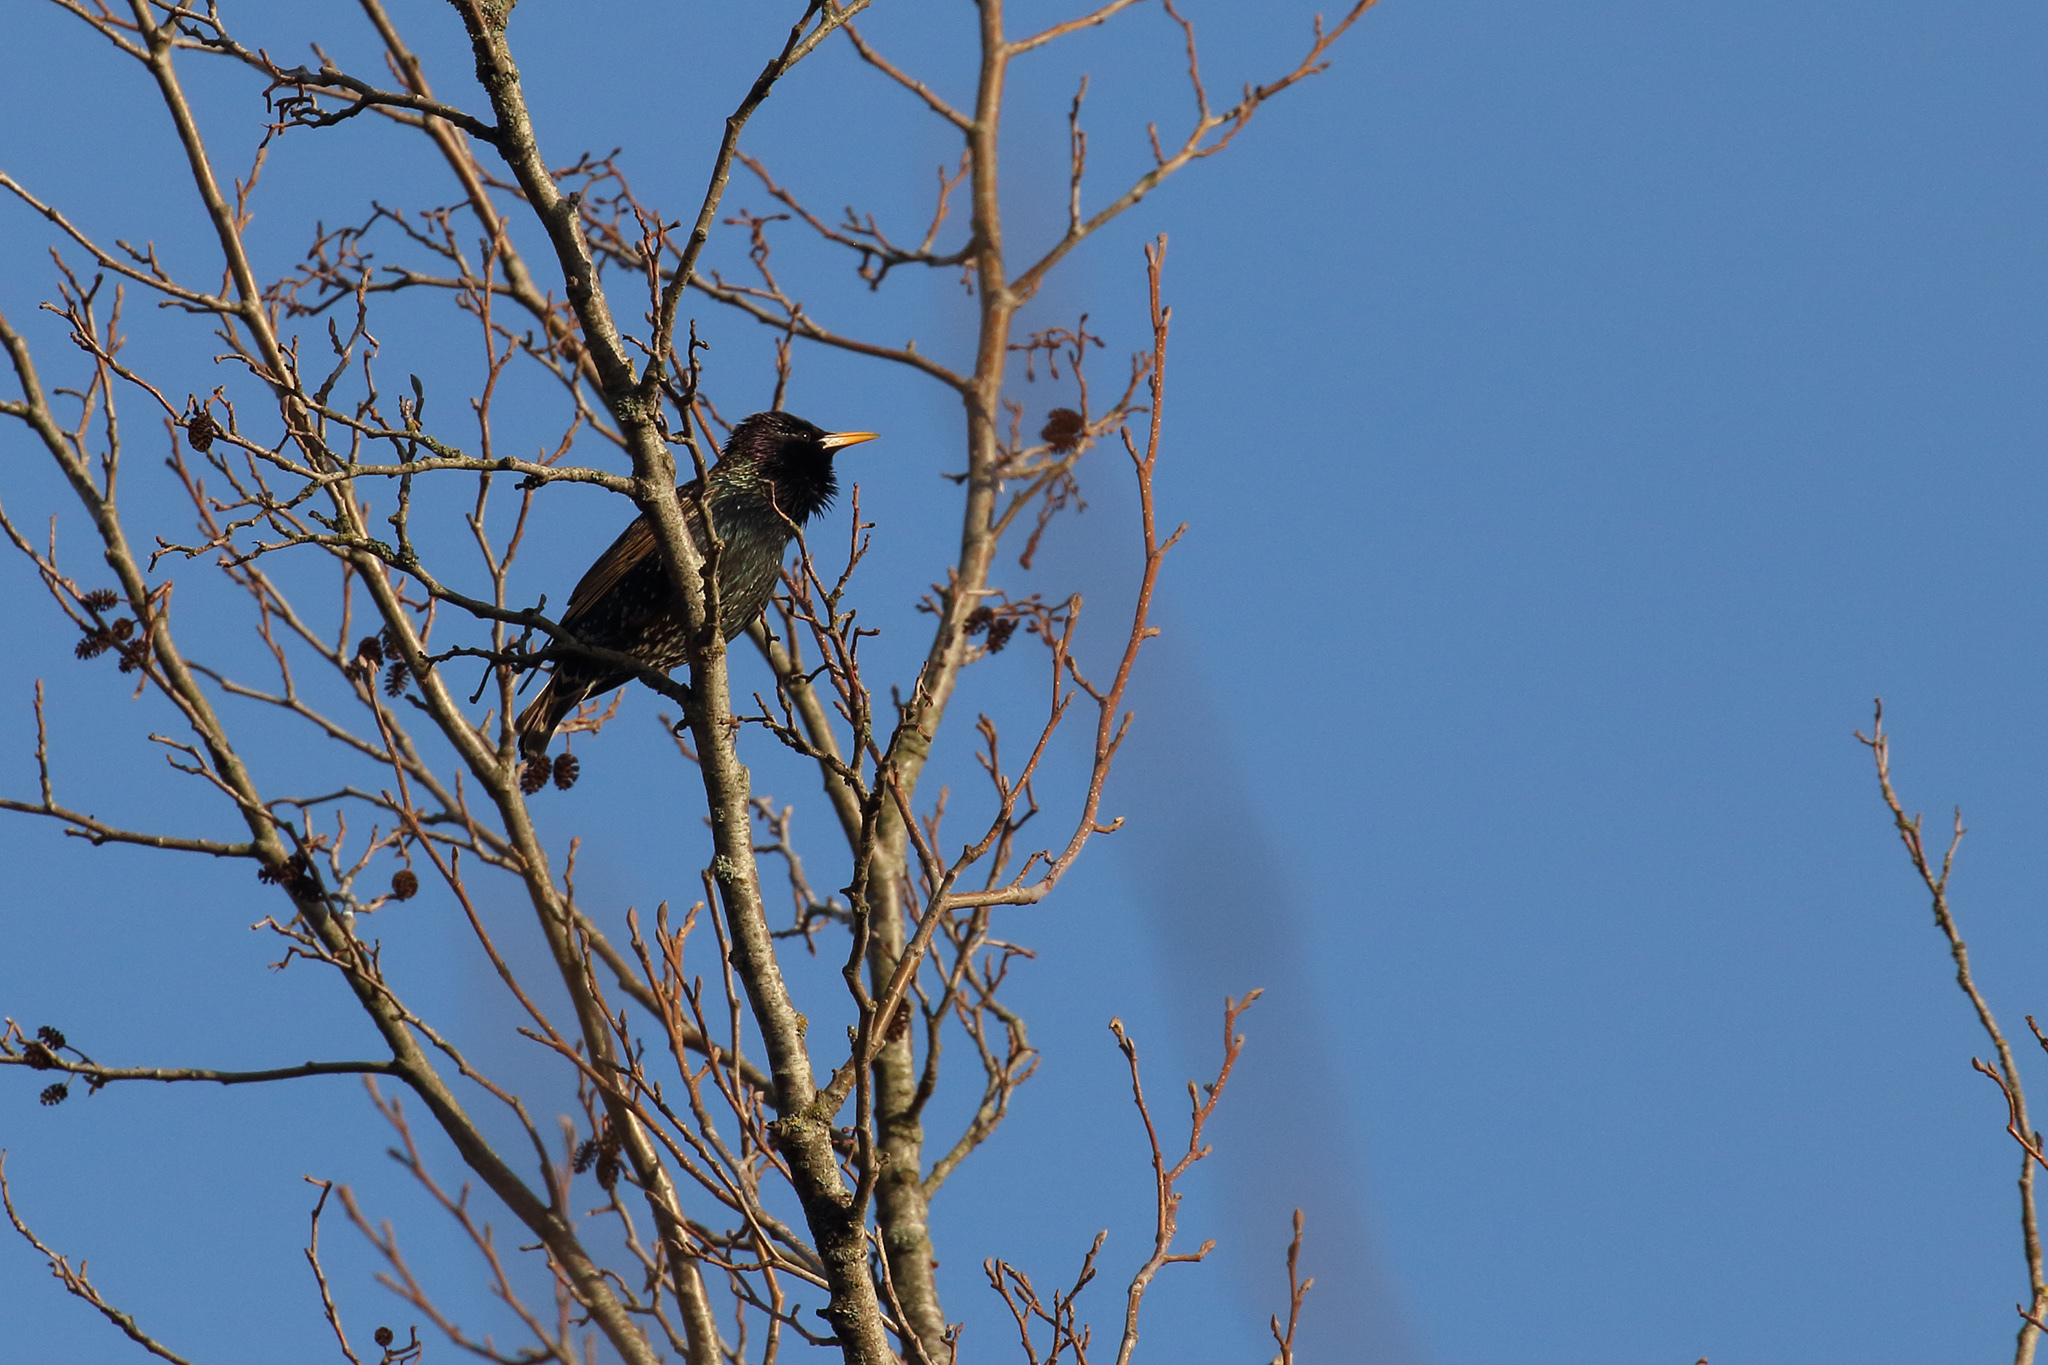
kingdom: Animalia
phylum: Chordata
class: Aves
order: Passeriformes
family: Sturnidae
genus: Sturnus
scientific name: Sturnus vulgaris
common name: Common starling
